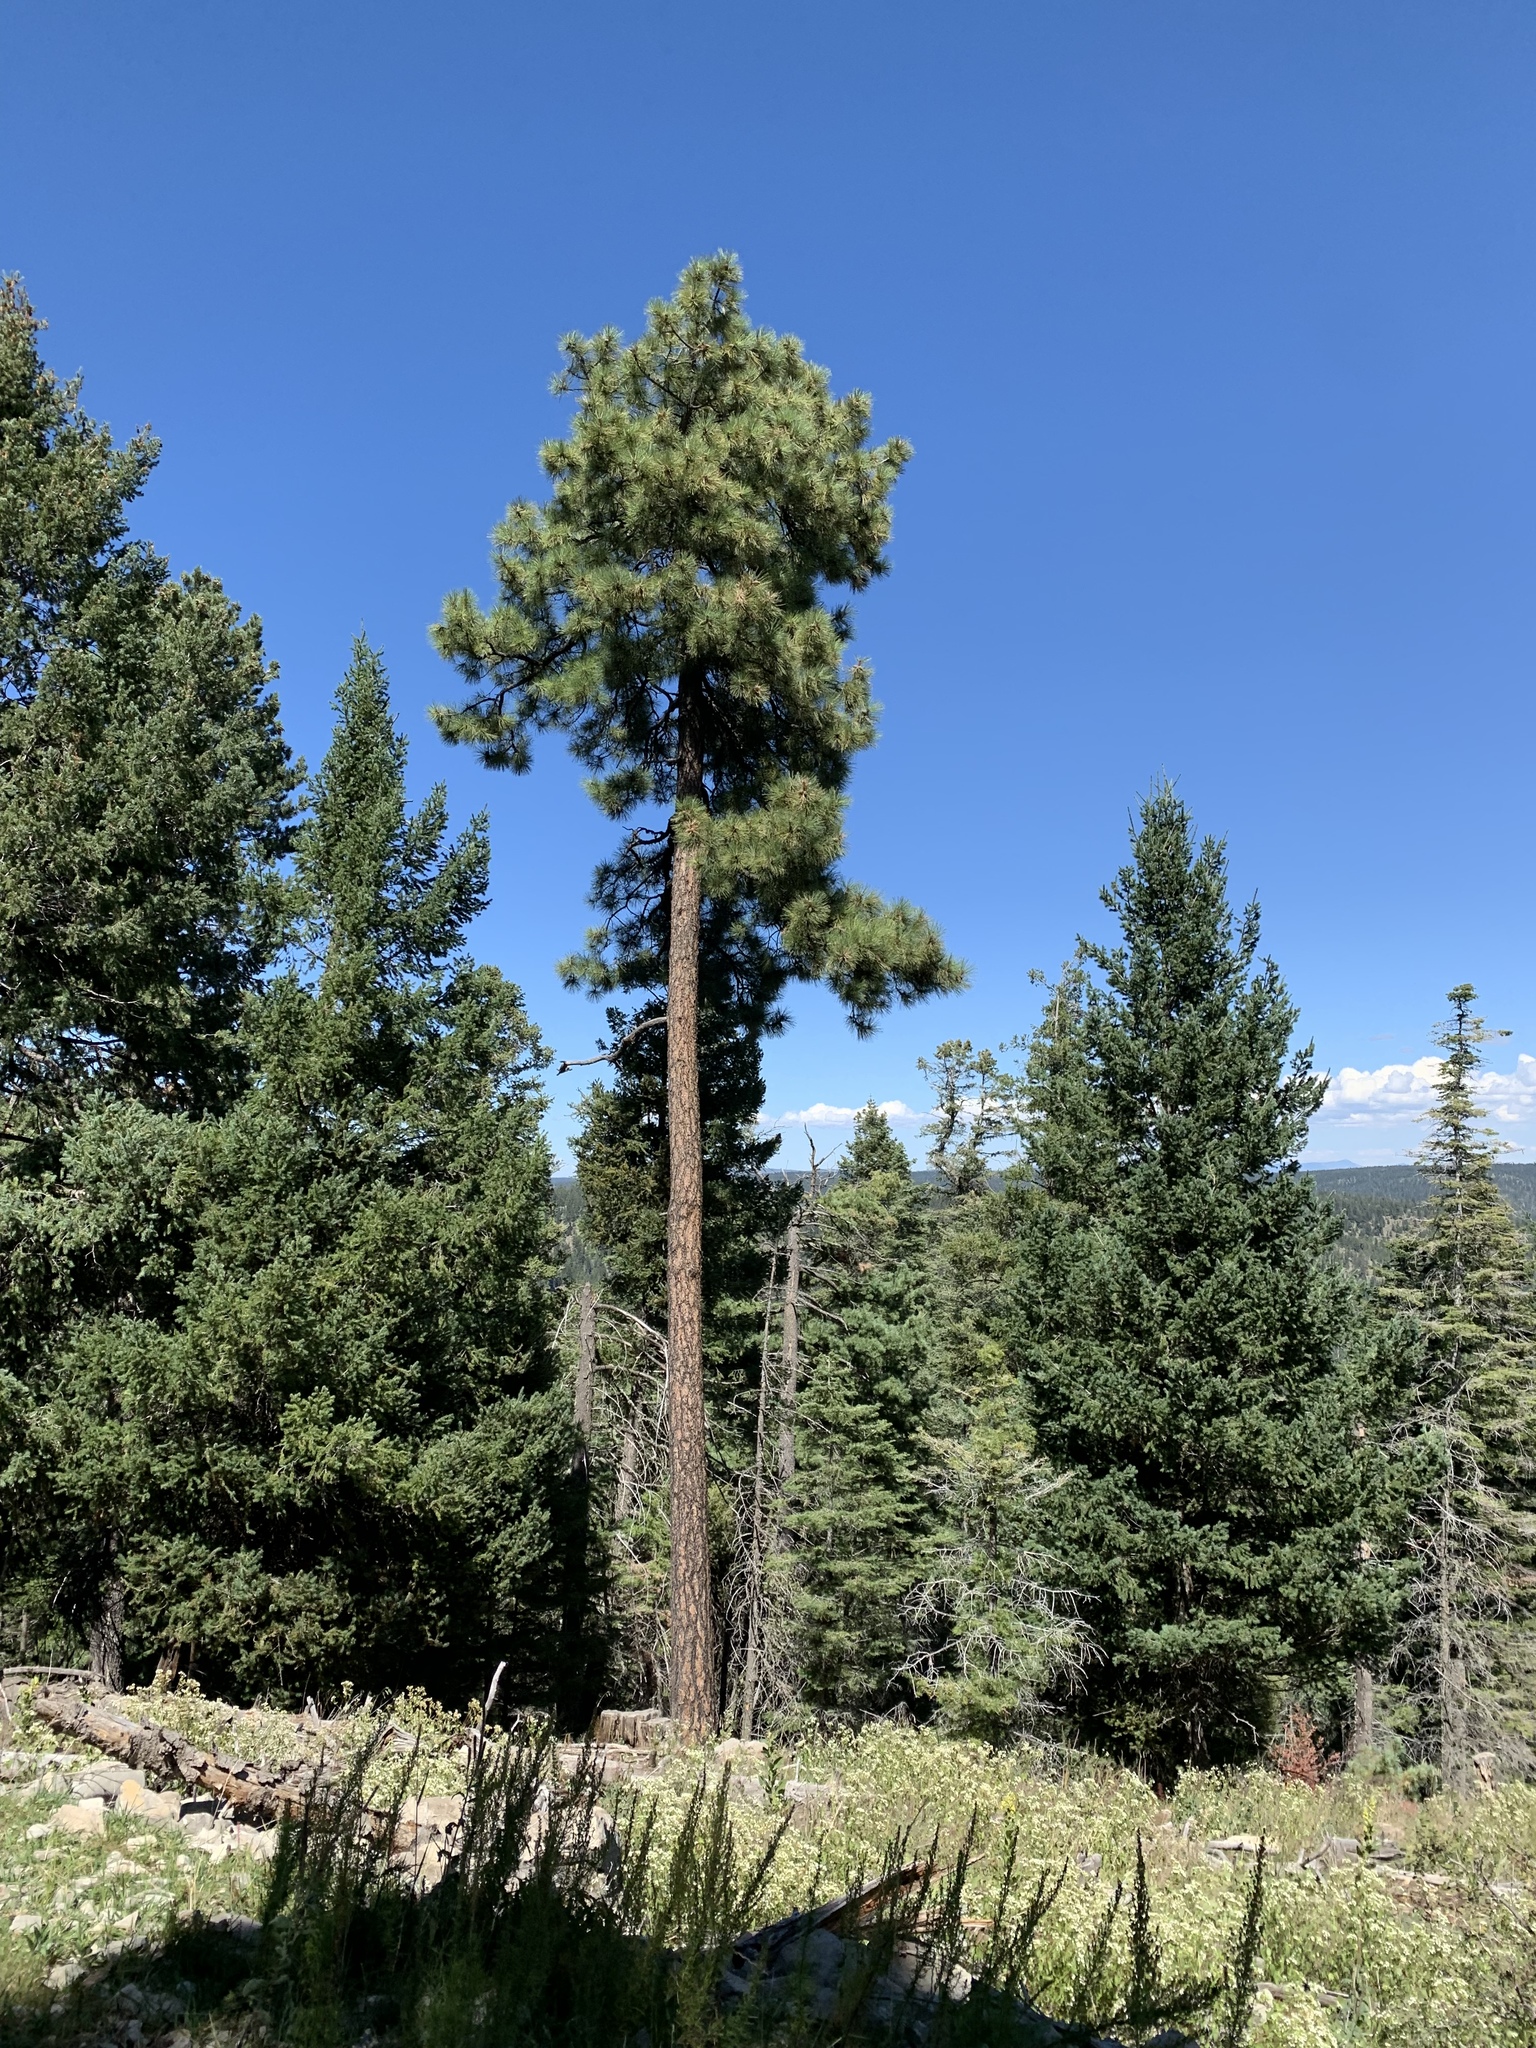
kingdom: Plantae
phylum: Tracheophyta
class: Pinopsida
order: Pinales
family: Pinaceae
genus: Pinus
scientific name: Pinus ponderosa
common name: Western yellow-pine
